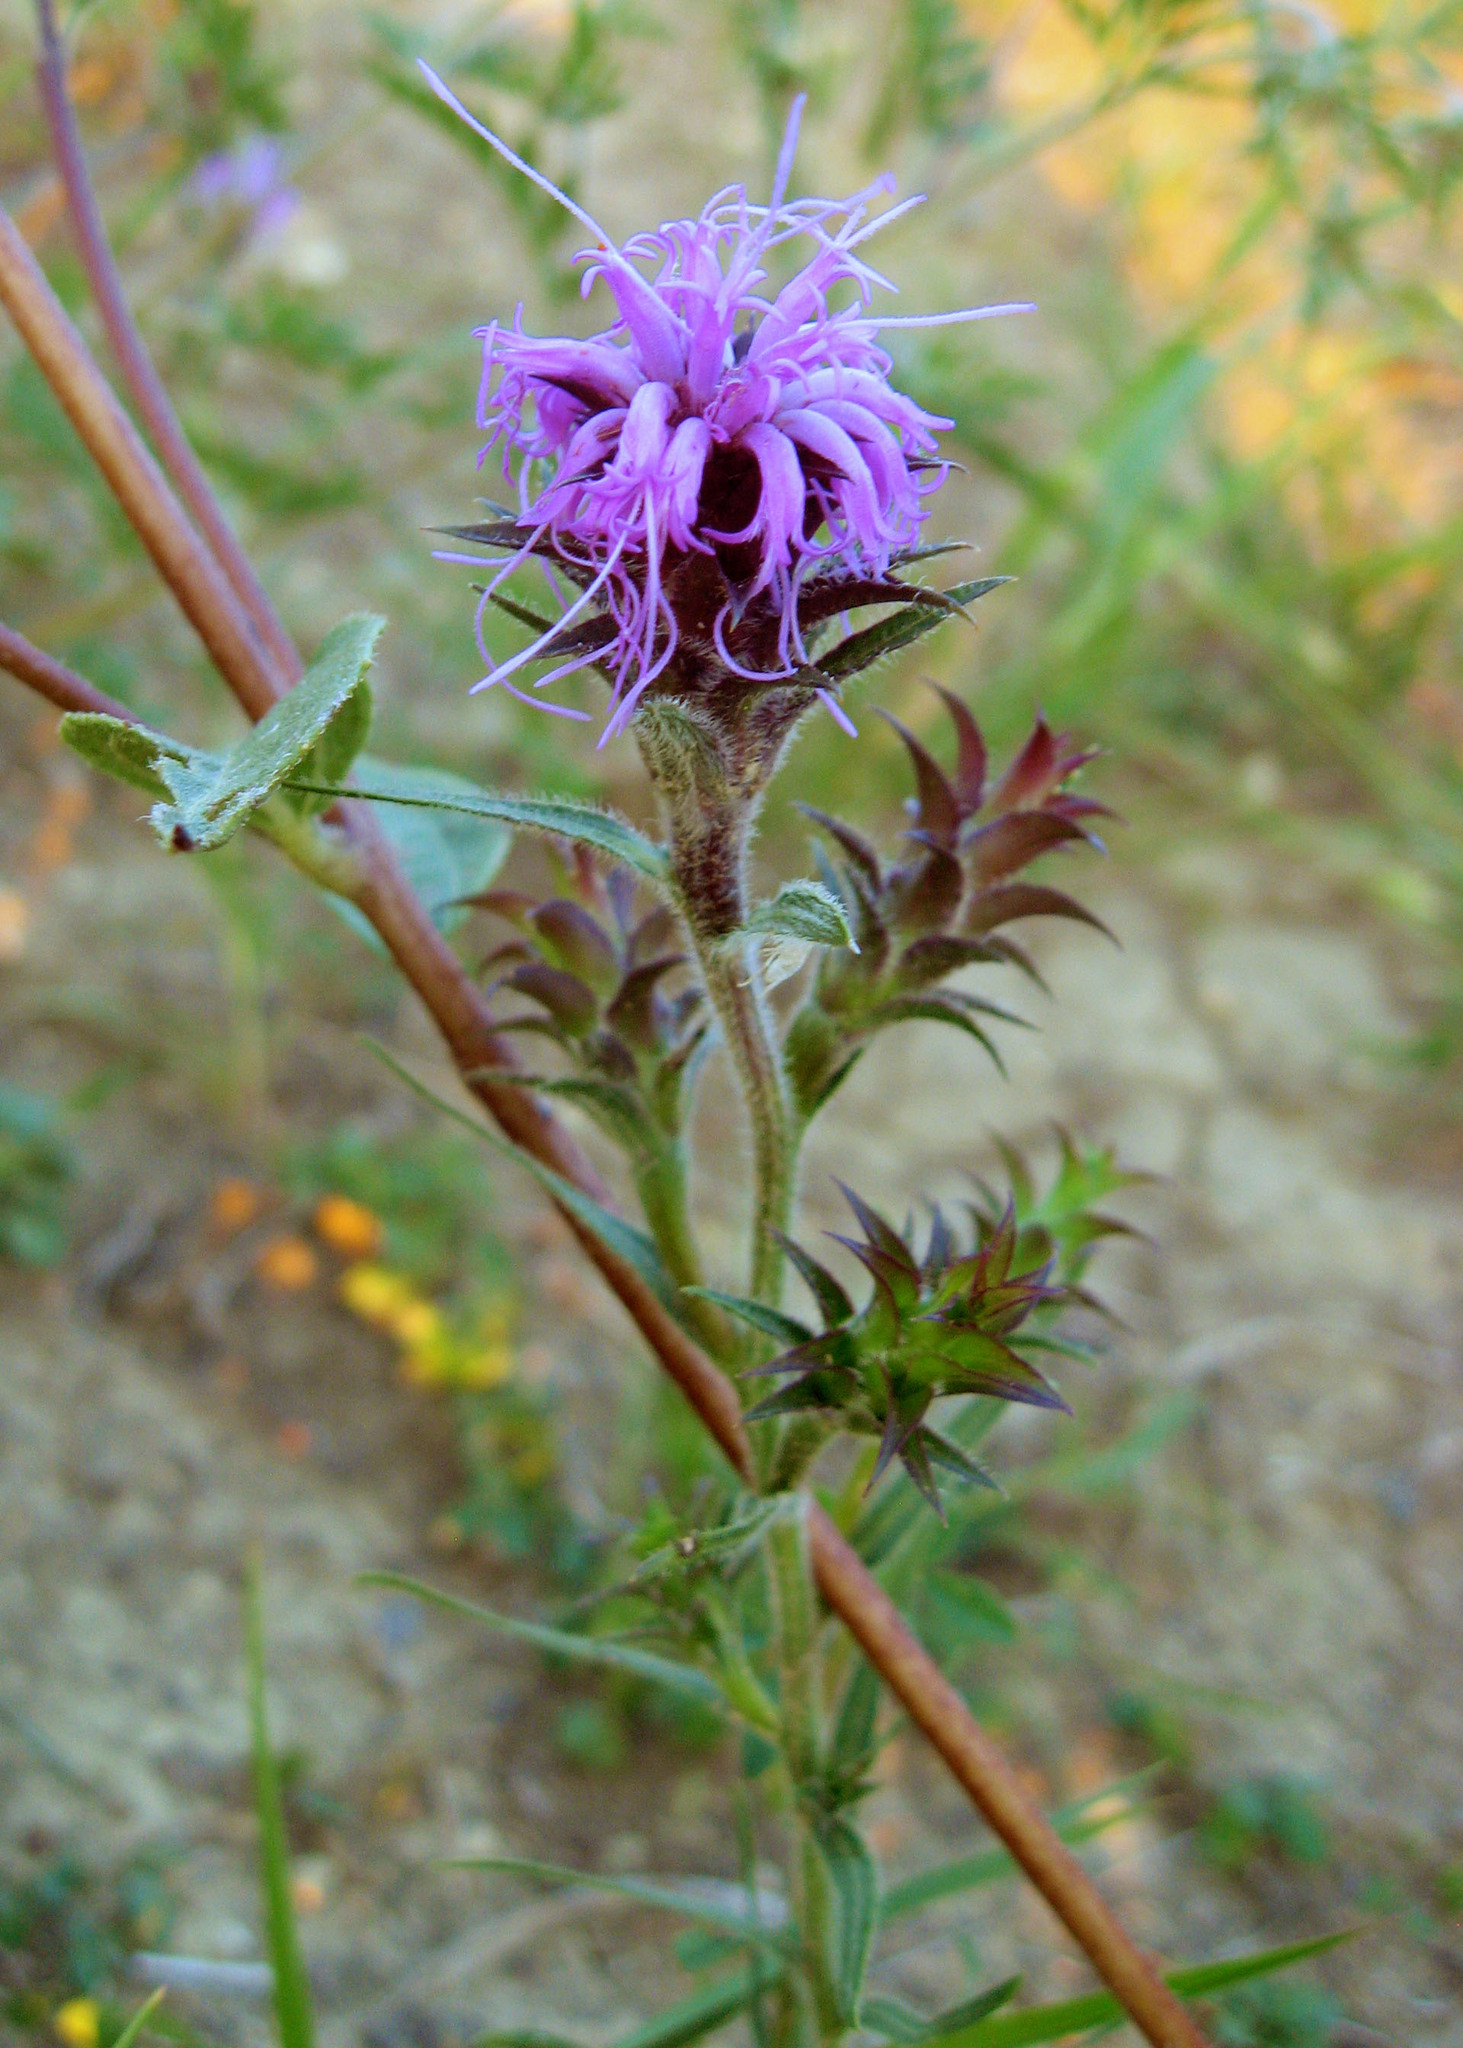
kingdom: Plantae
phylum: Tracheophyta
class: Magnoliopsida
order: Asterales
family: Asteraceae
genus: Liatris
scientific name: Liatris squarrosa
